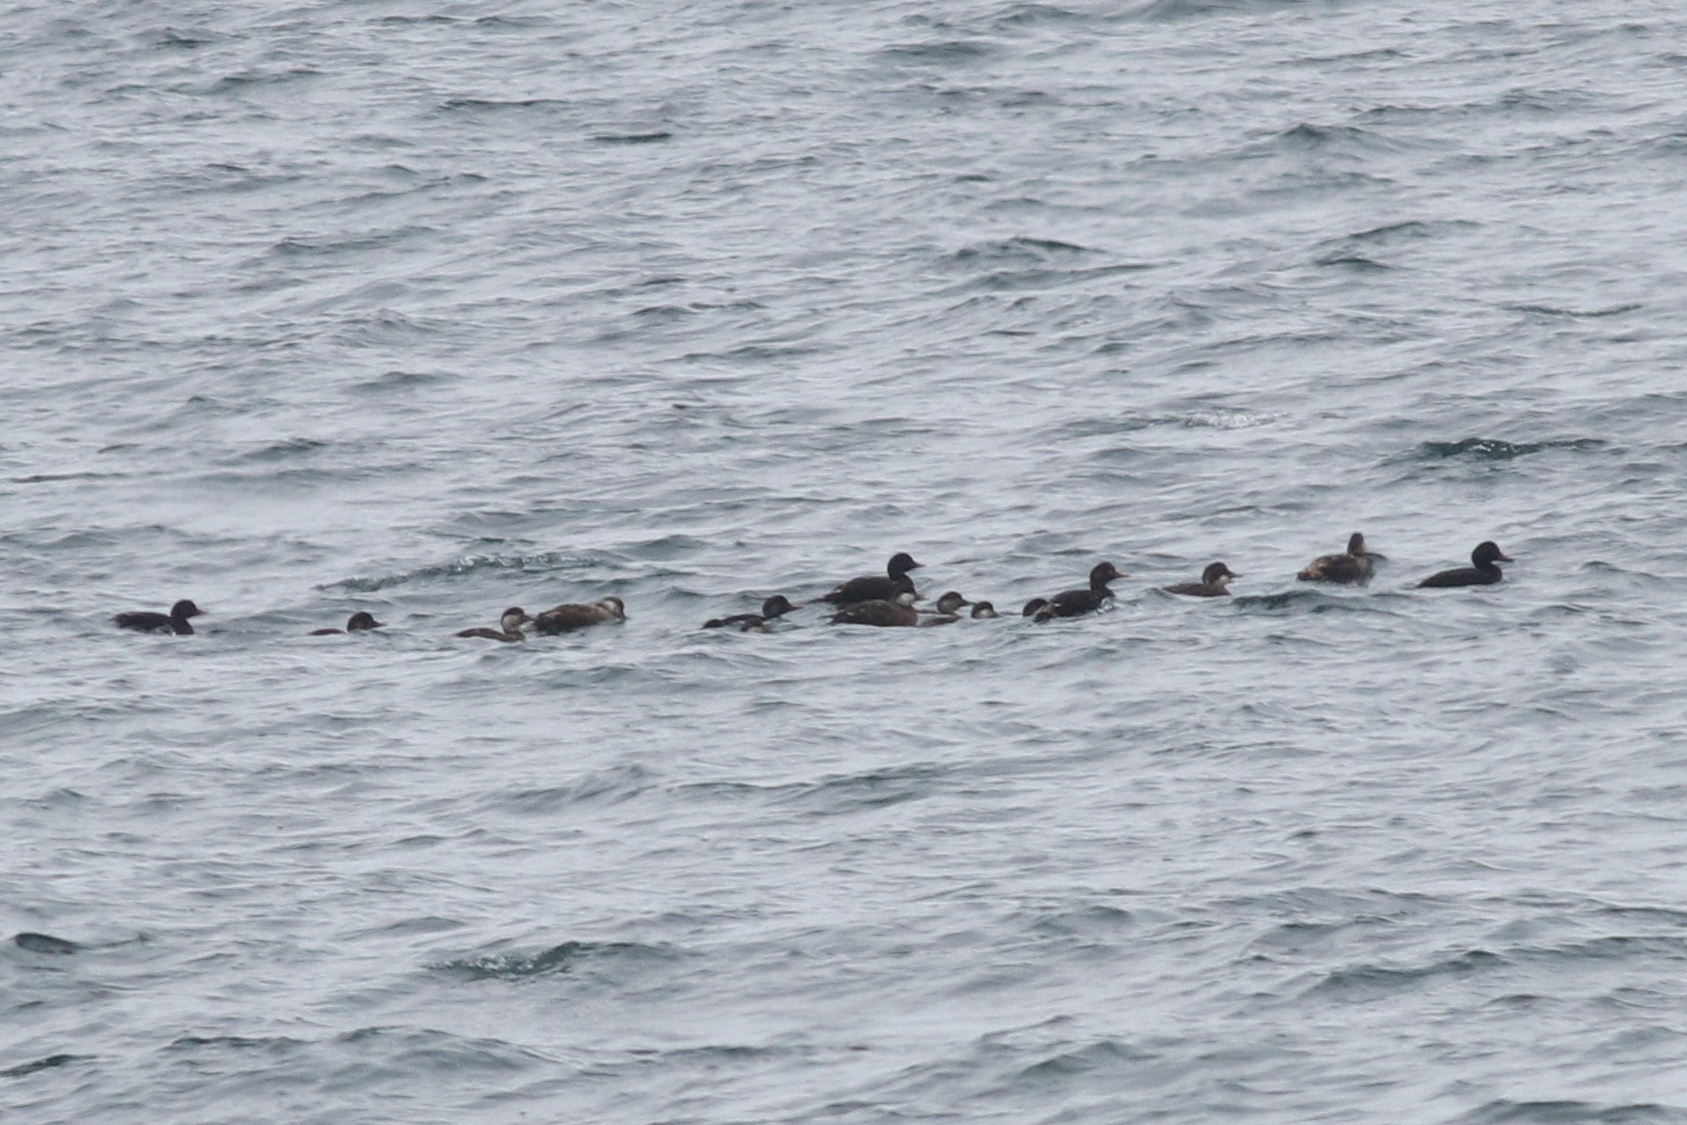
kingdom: Animalia
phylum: Chordata
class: Aves
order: Anseriformes
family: Anatidae
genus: Melanitta
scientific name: Melanitta nigra
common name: Common scoter
